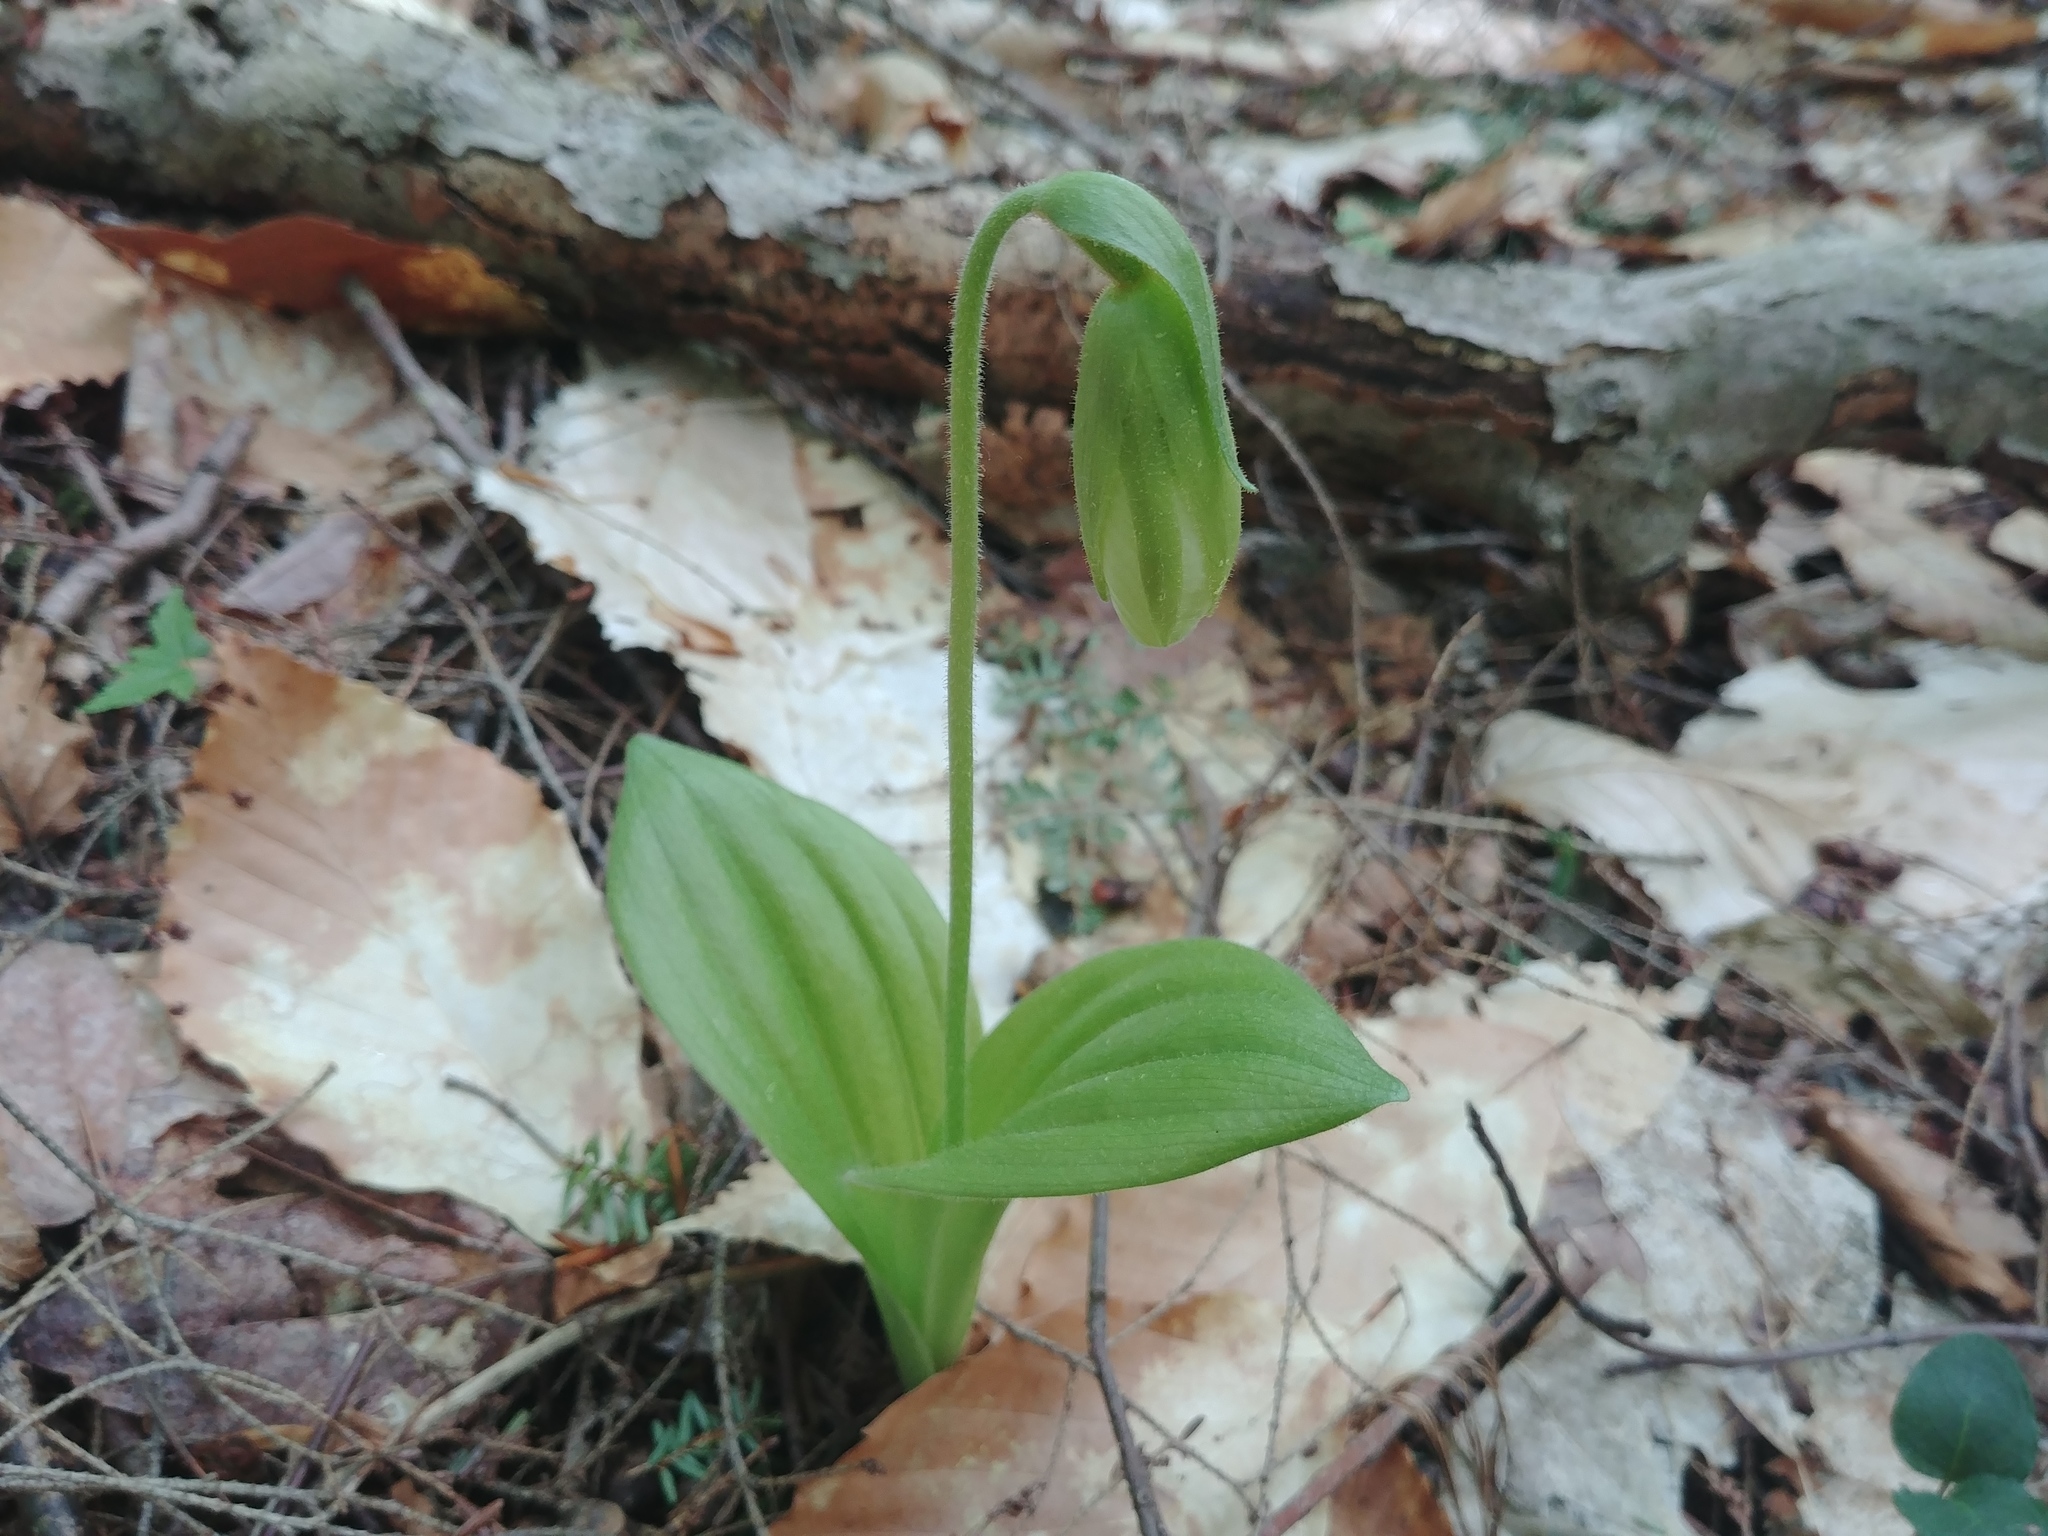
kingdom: Plantae
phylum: Tracheophyta
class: Liliopsida
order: Asparagales
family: Orchidaceae
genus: Cypripedium
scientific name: Cypripedium acaule
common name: Pink lady's-slipper
